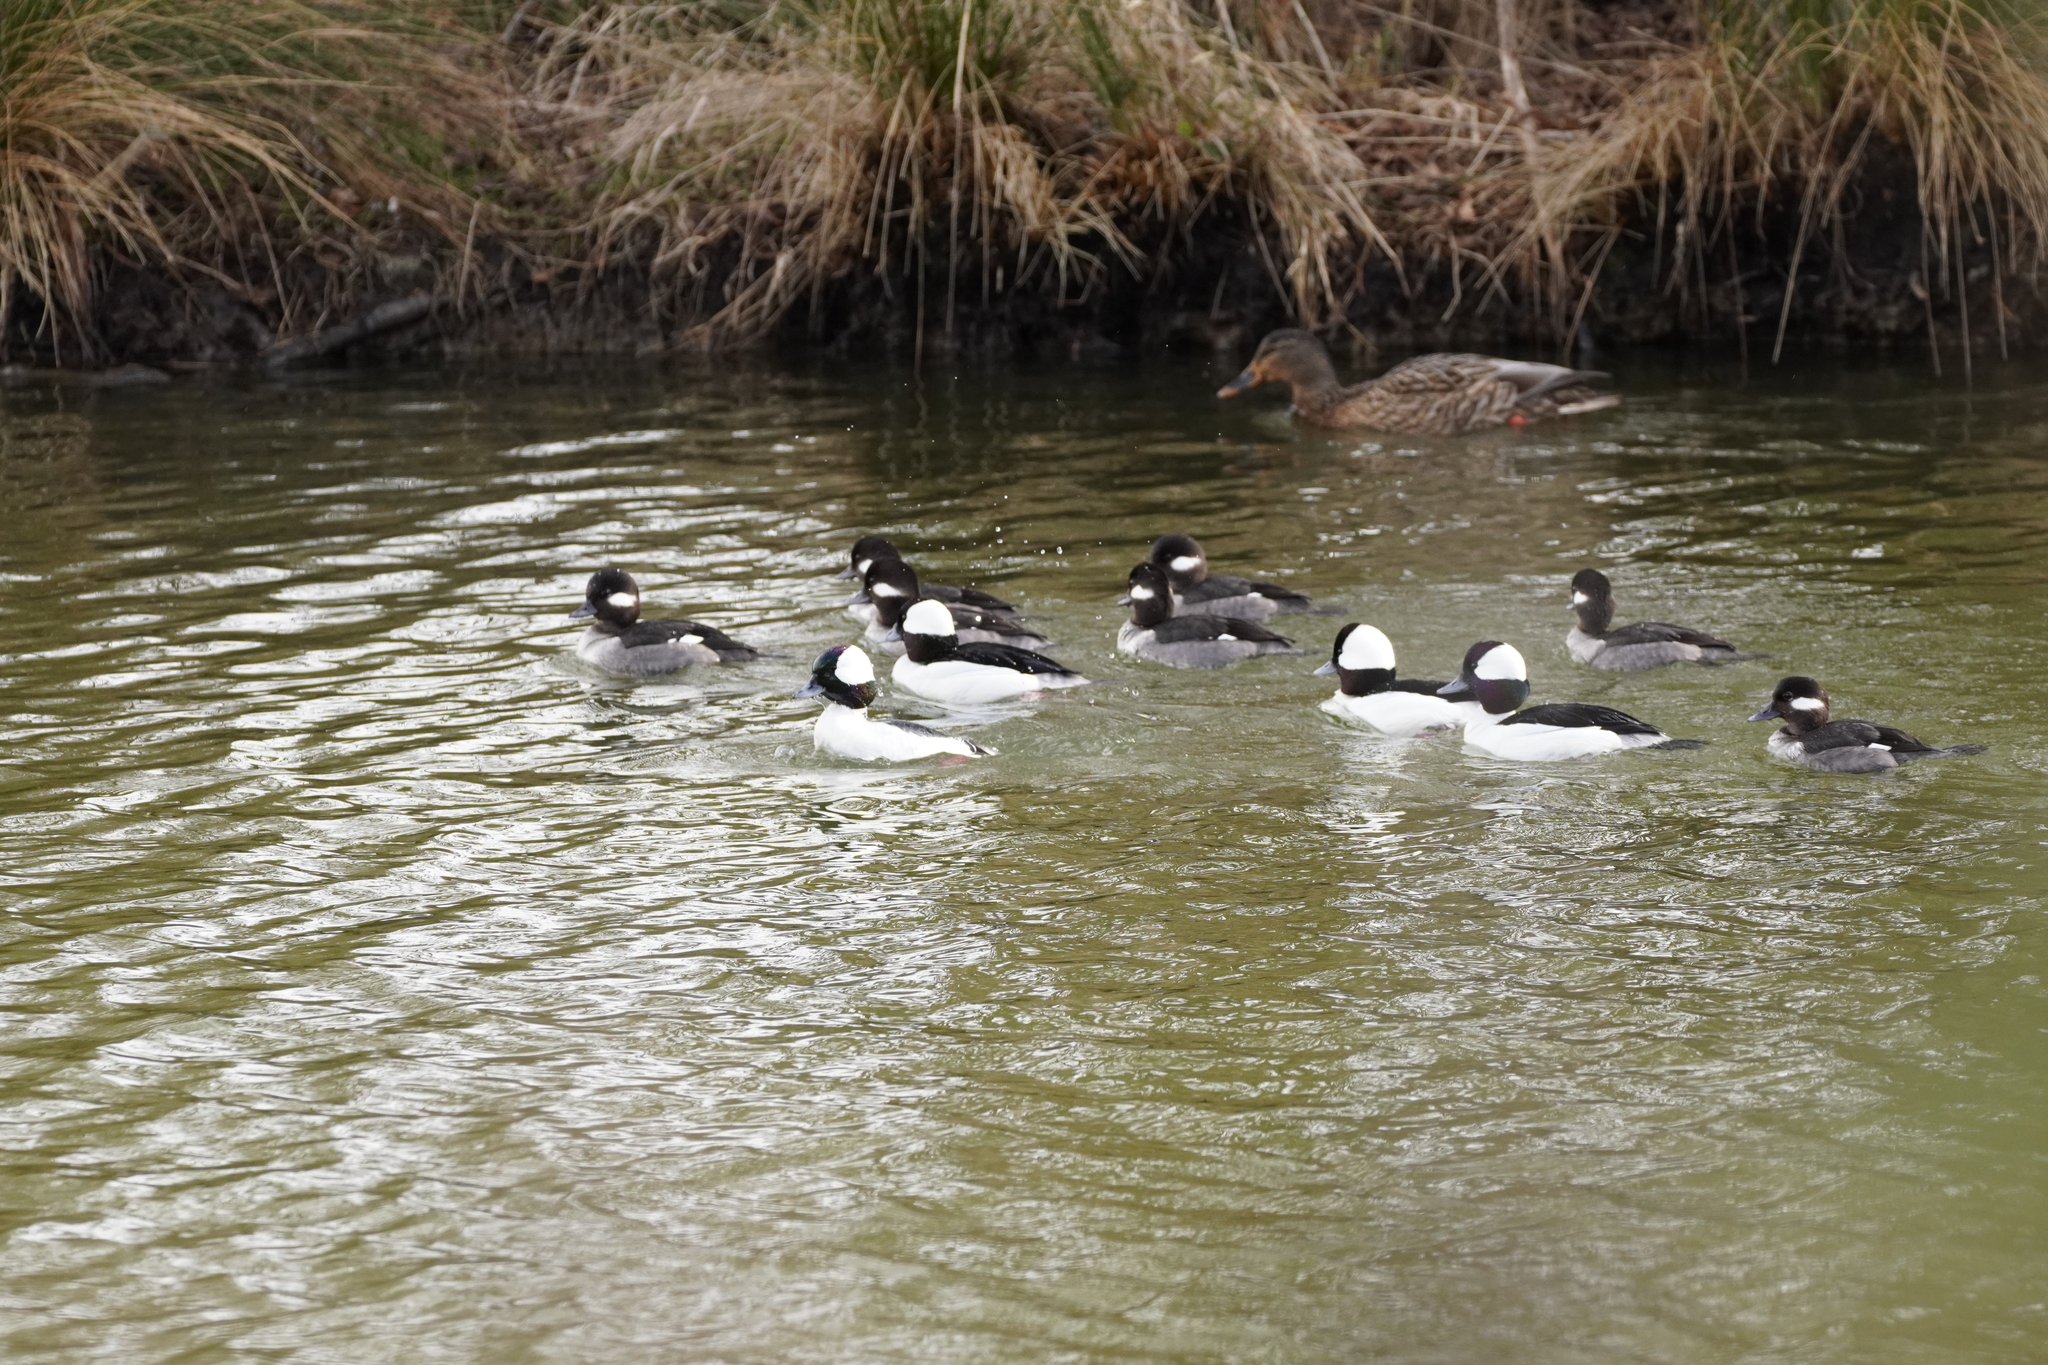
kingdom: Animalia
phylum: Chordata
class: Aves
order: Anseriformes
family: Anatidae
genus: Bucephala
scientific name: Bucephala albeola
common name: Bufflehead
